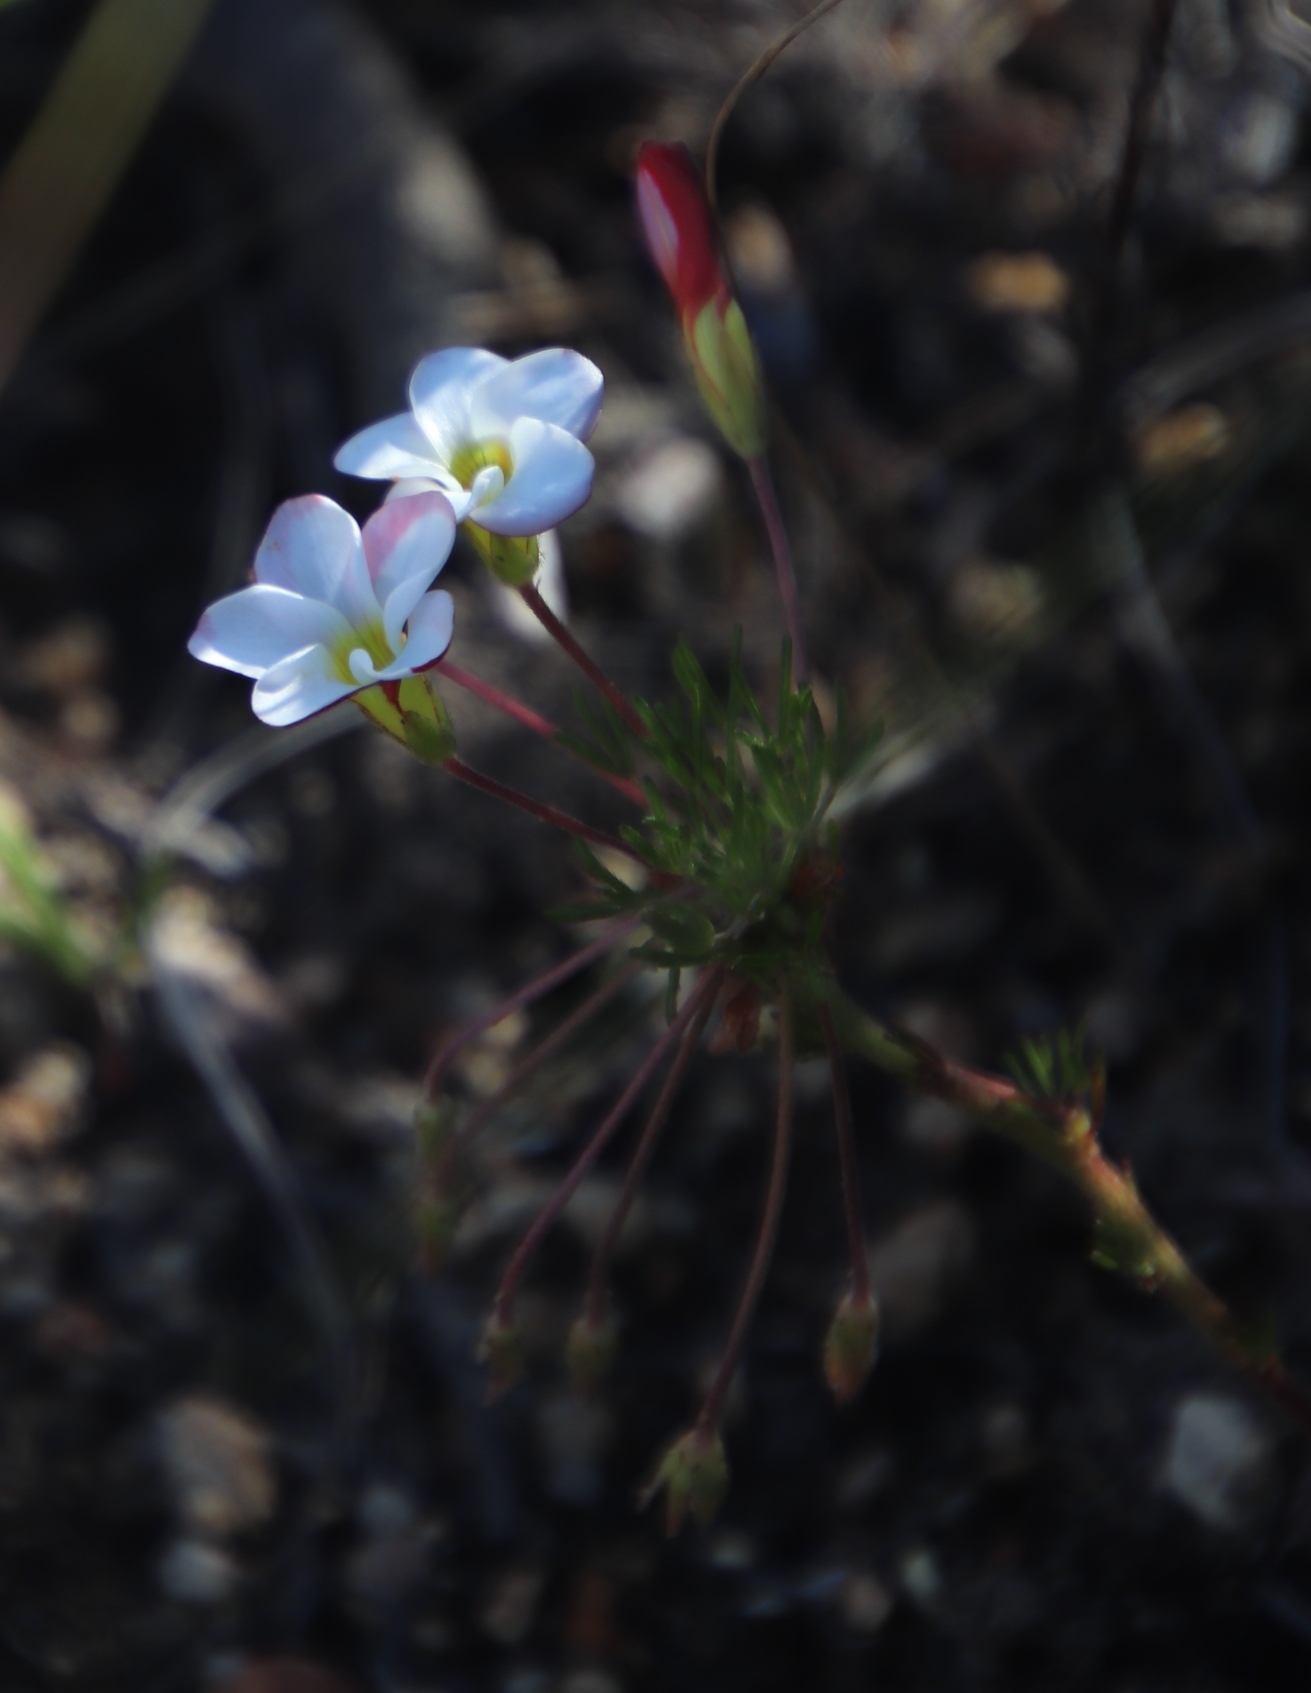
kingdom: Plantae
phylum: Tracheophyta
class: Magnoliopsida
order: Oxalidales
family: Oxalidaceae
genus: Oxalis
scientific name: Oxalis tenuifolia
